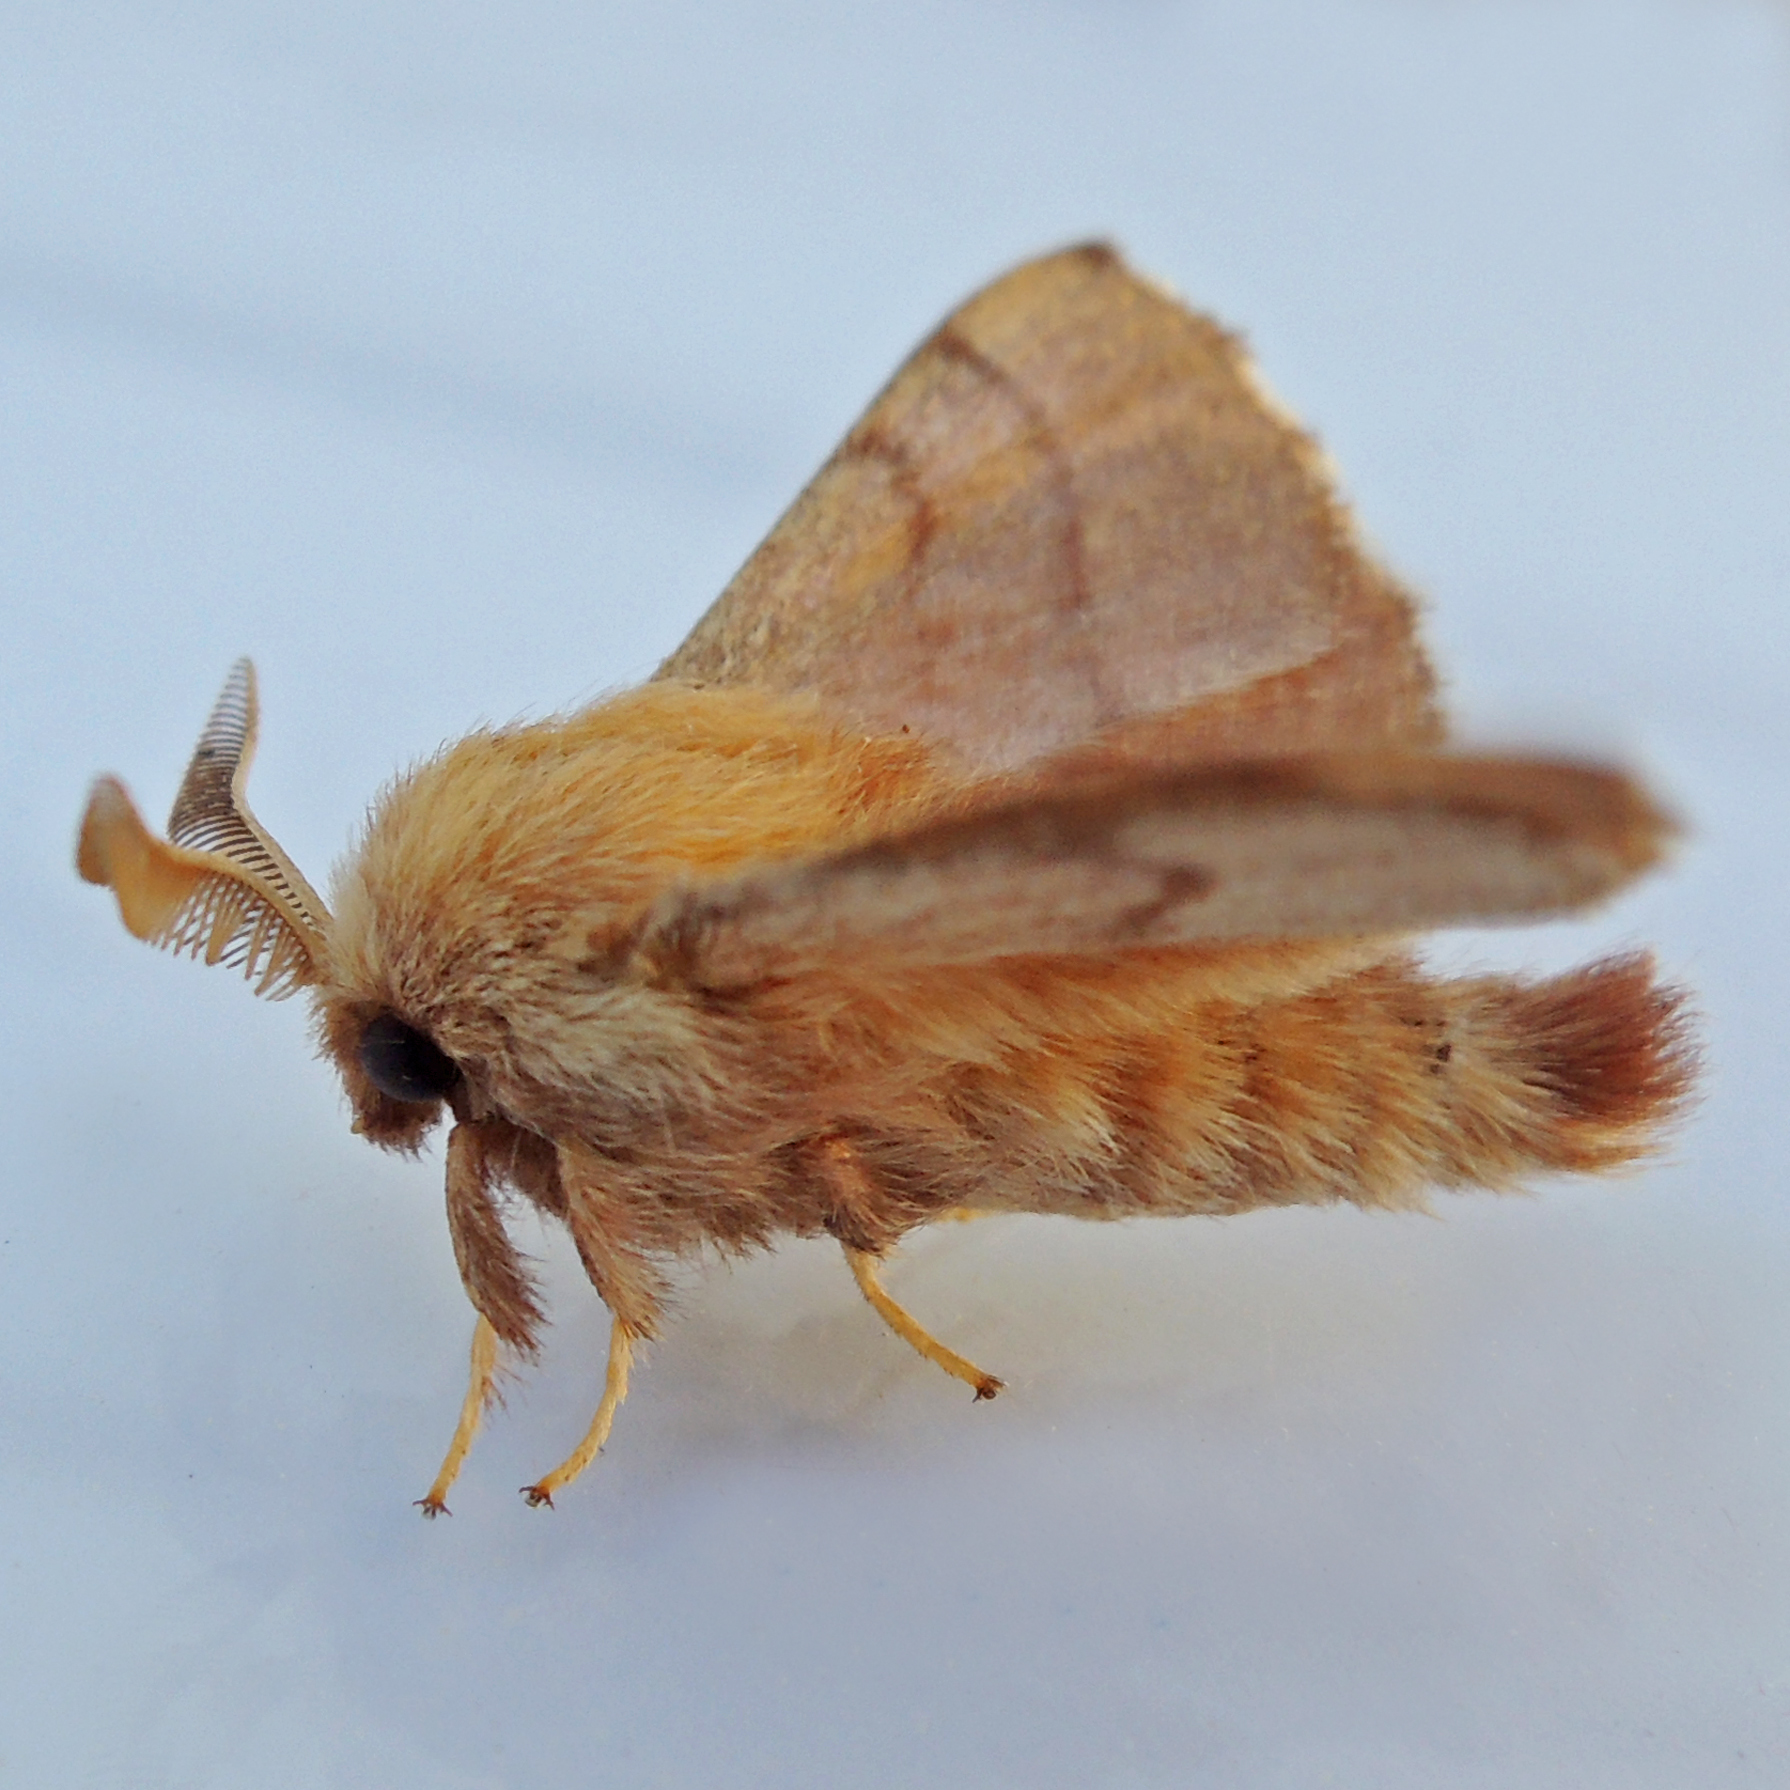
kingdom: Animalia
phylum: Arthropoda
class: Insecta
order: Lepidoptera
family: Lasiocampidae
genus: Malacosoma
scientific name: Malacosoma disstria
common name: Forest tent caterpillar
